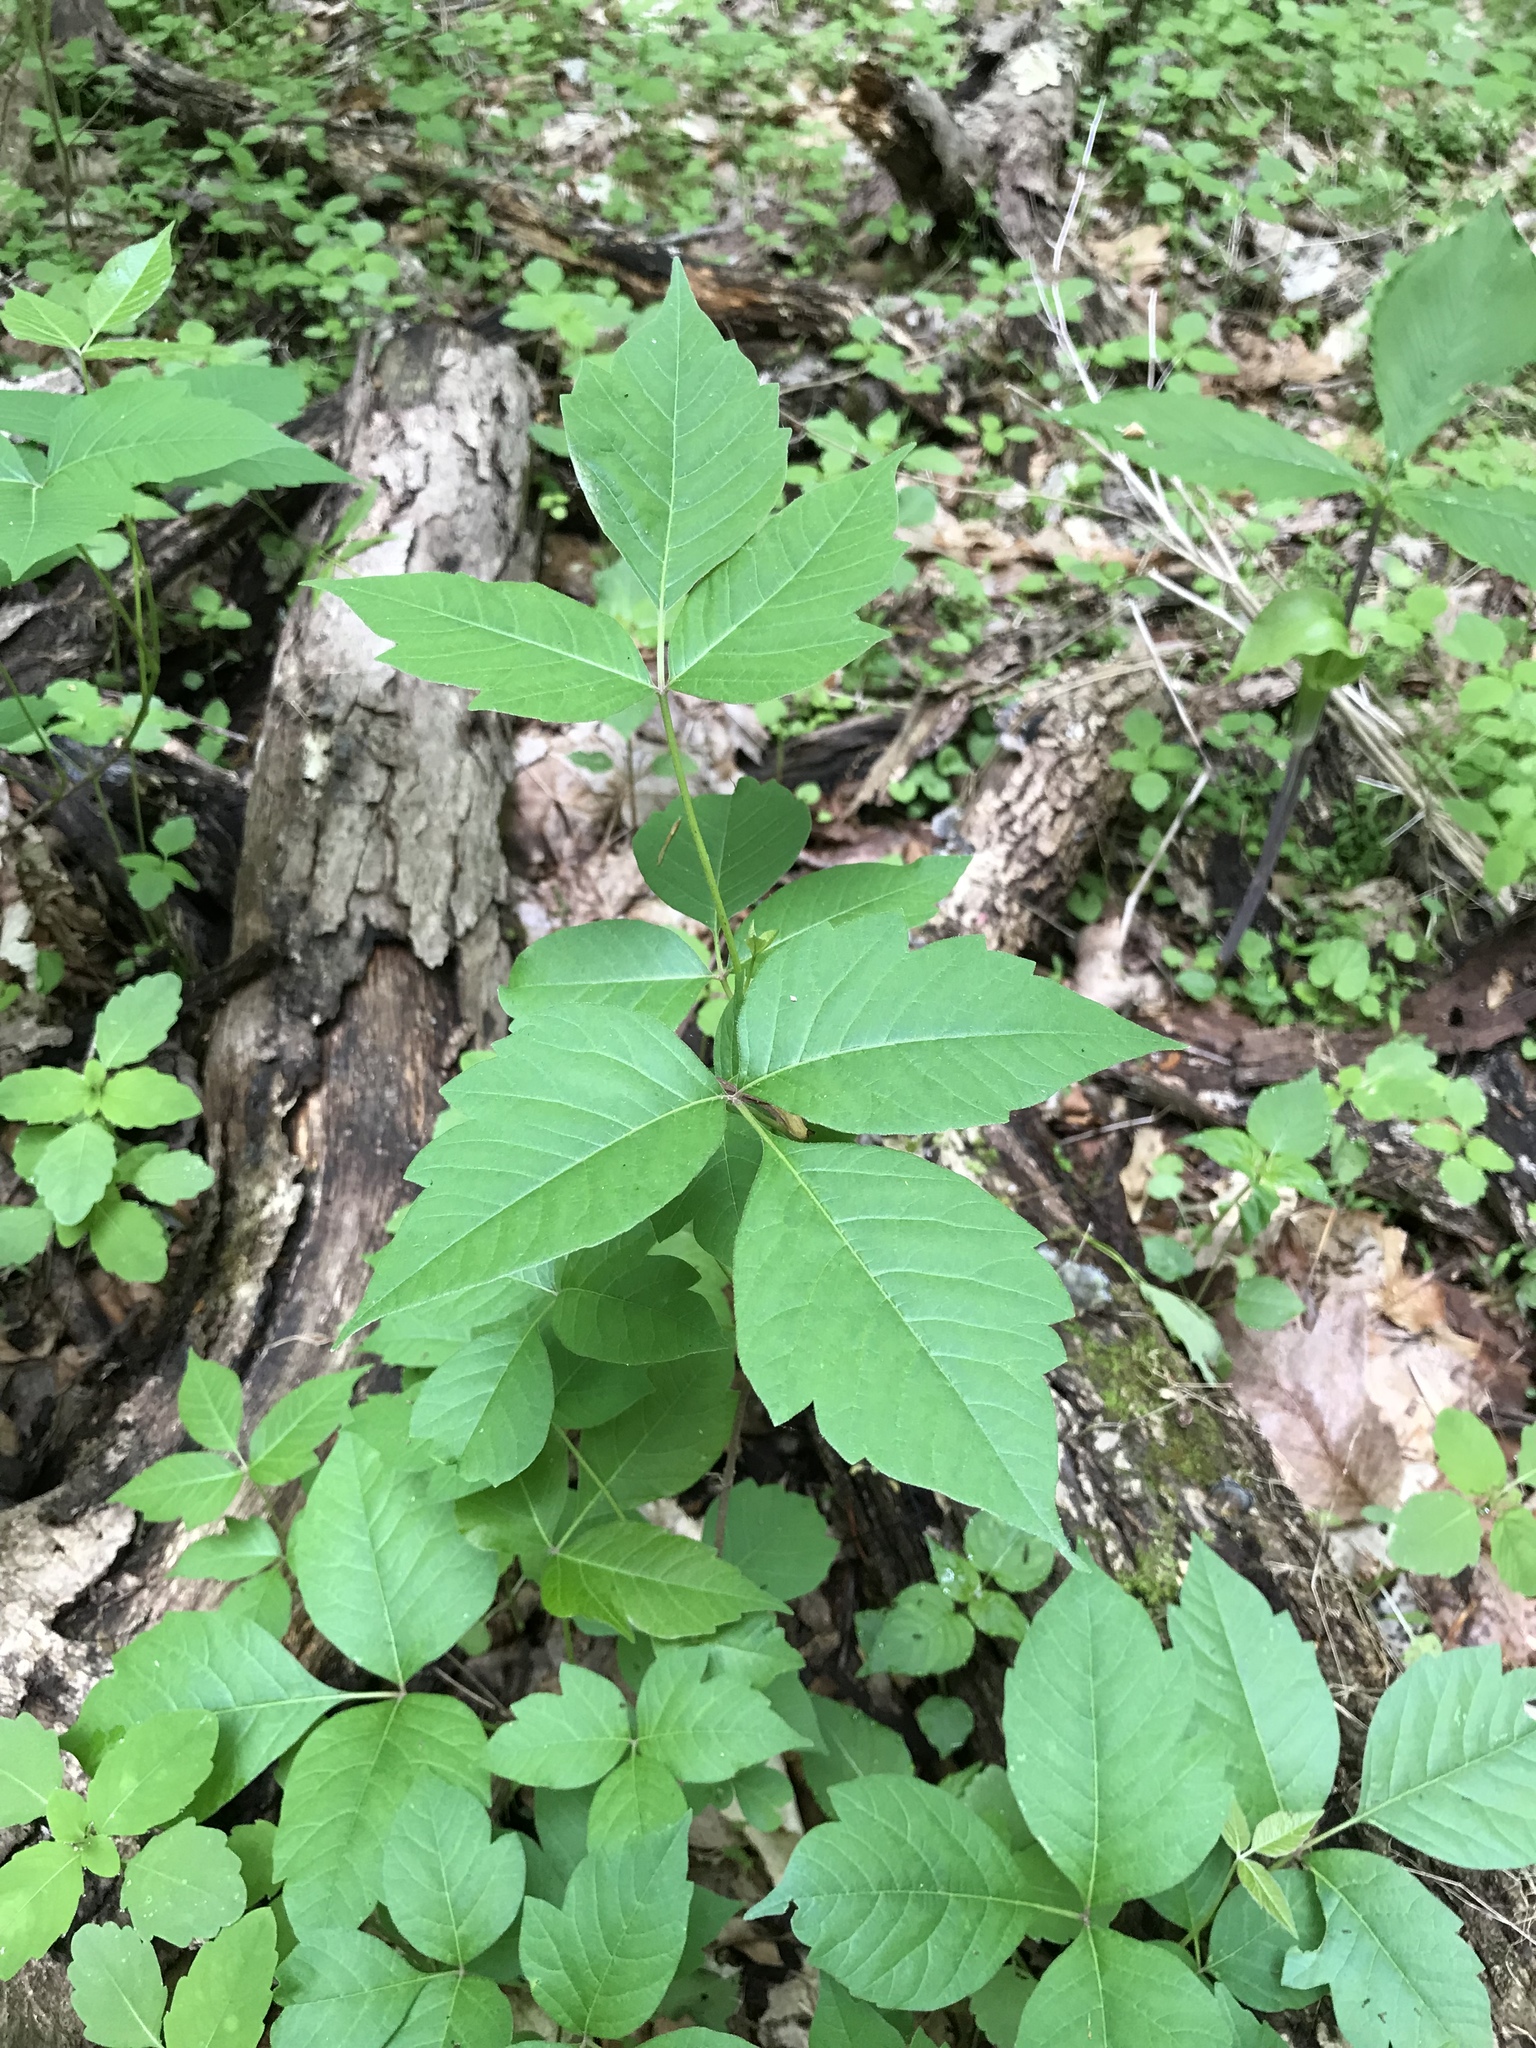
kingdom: Plantae
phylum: Tracheophyta
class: Magnoliopsida
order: Sapindales
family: Anacardiaceae
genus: Toxicodendron
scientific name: Toxicodendron radicans
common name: Poison ivy
